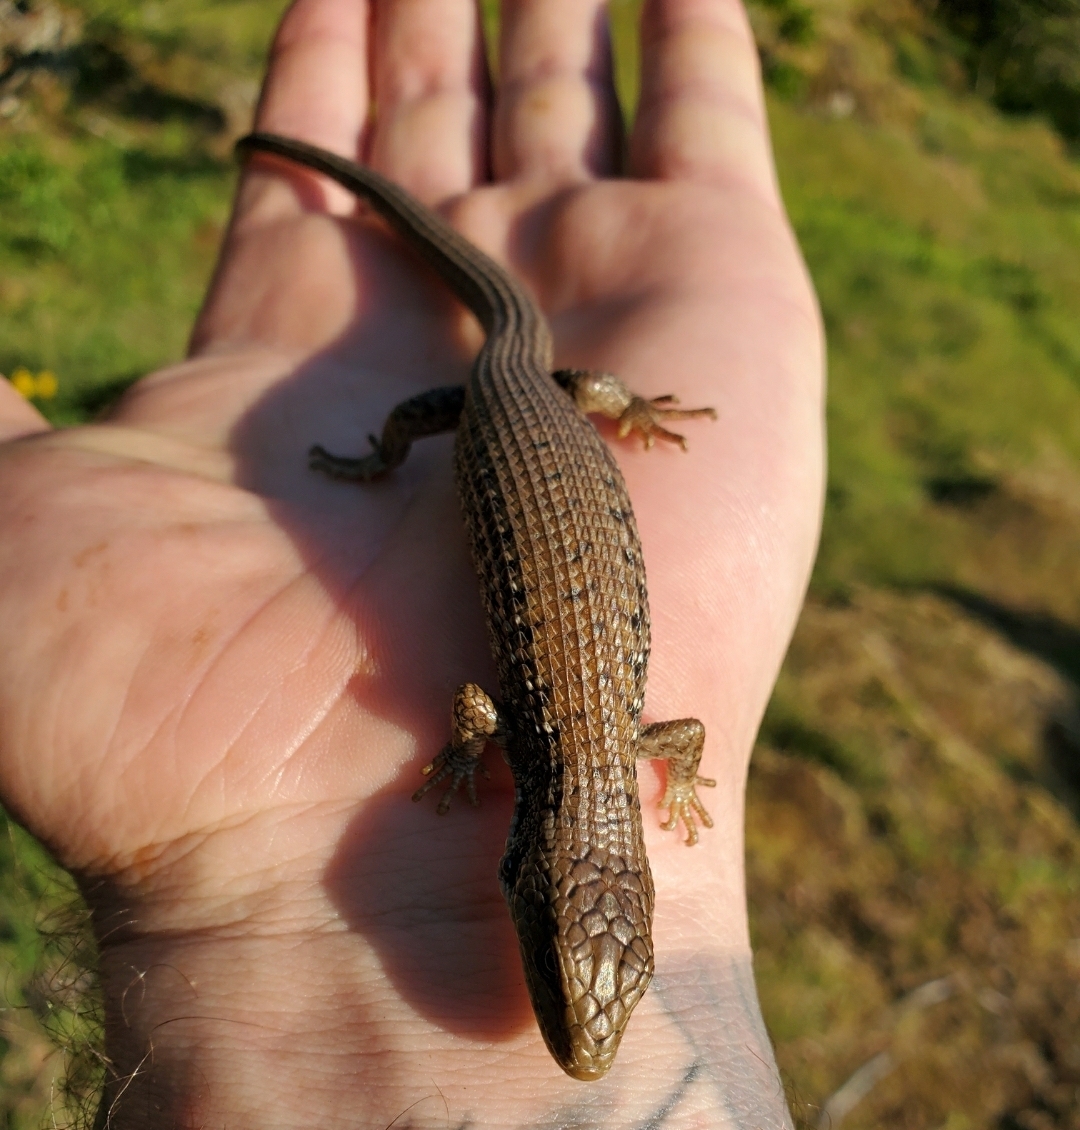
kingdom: Animalia
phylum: Chordata
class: Squamata
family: Anguidae
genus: Elgaria
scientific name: Elgaria coerulea
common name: Northern alligator lizard
